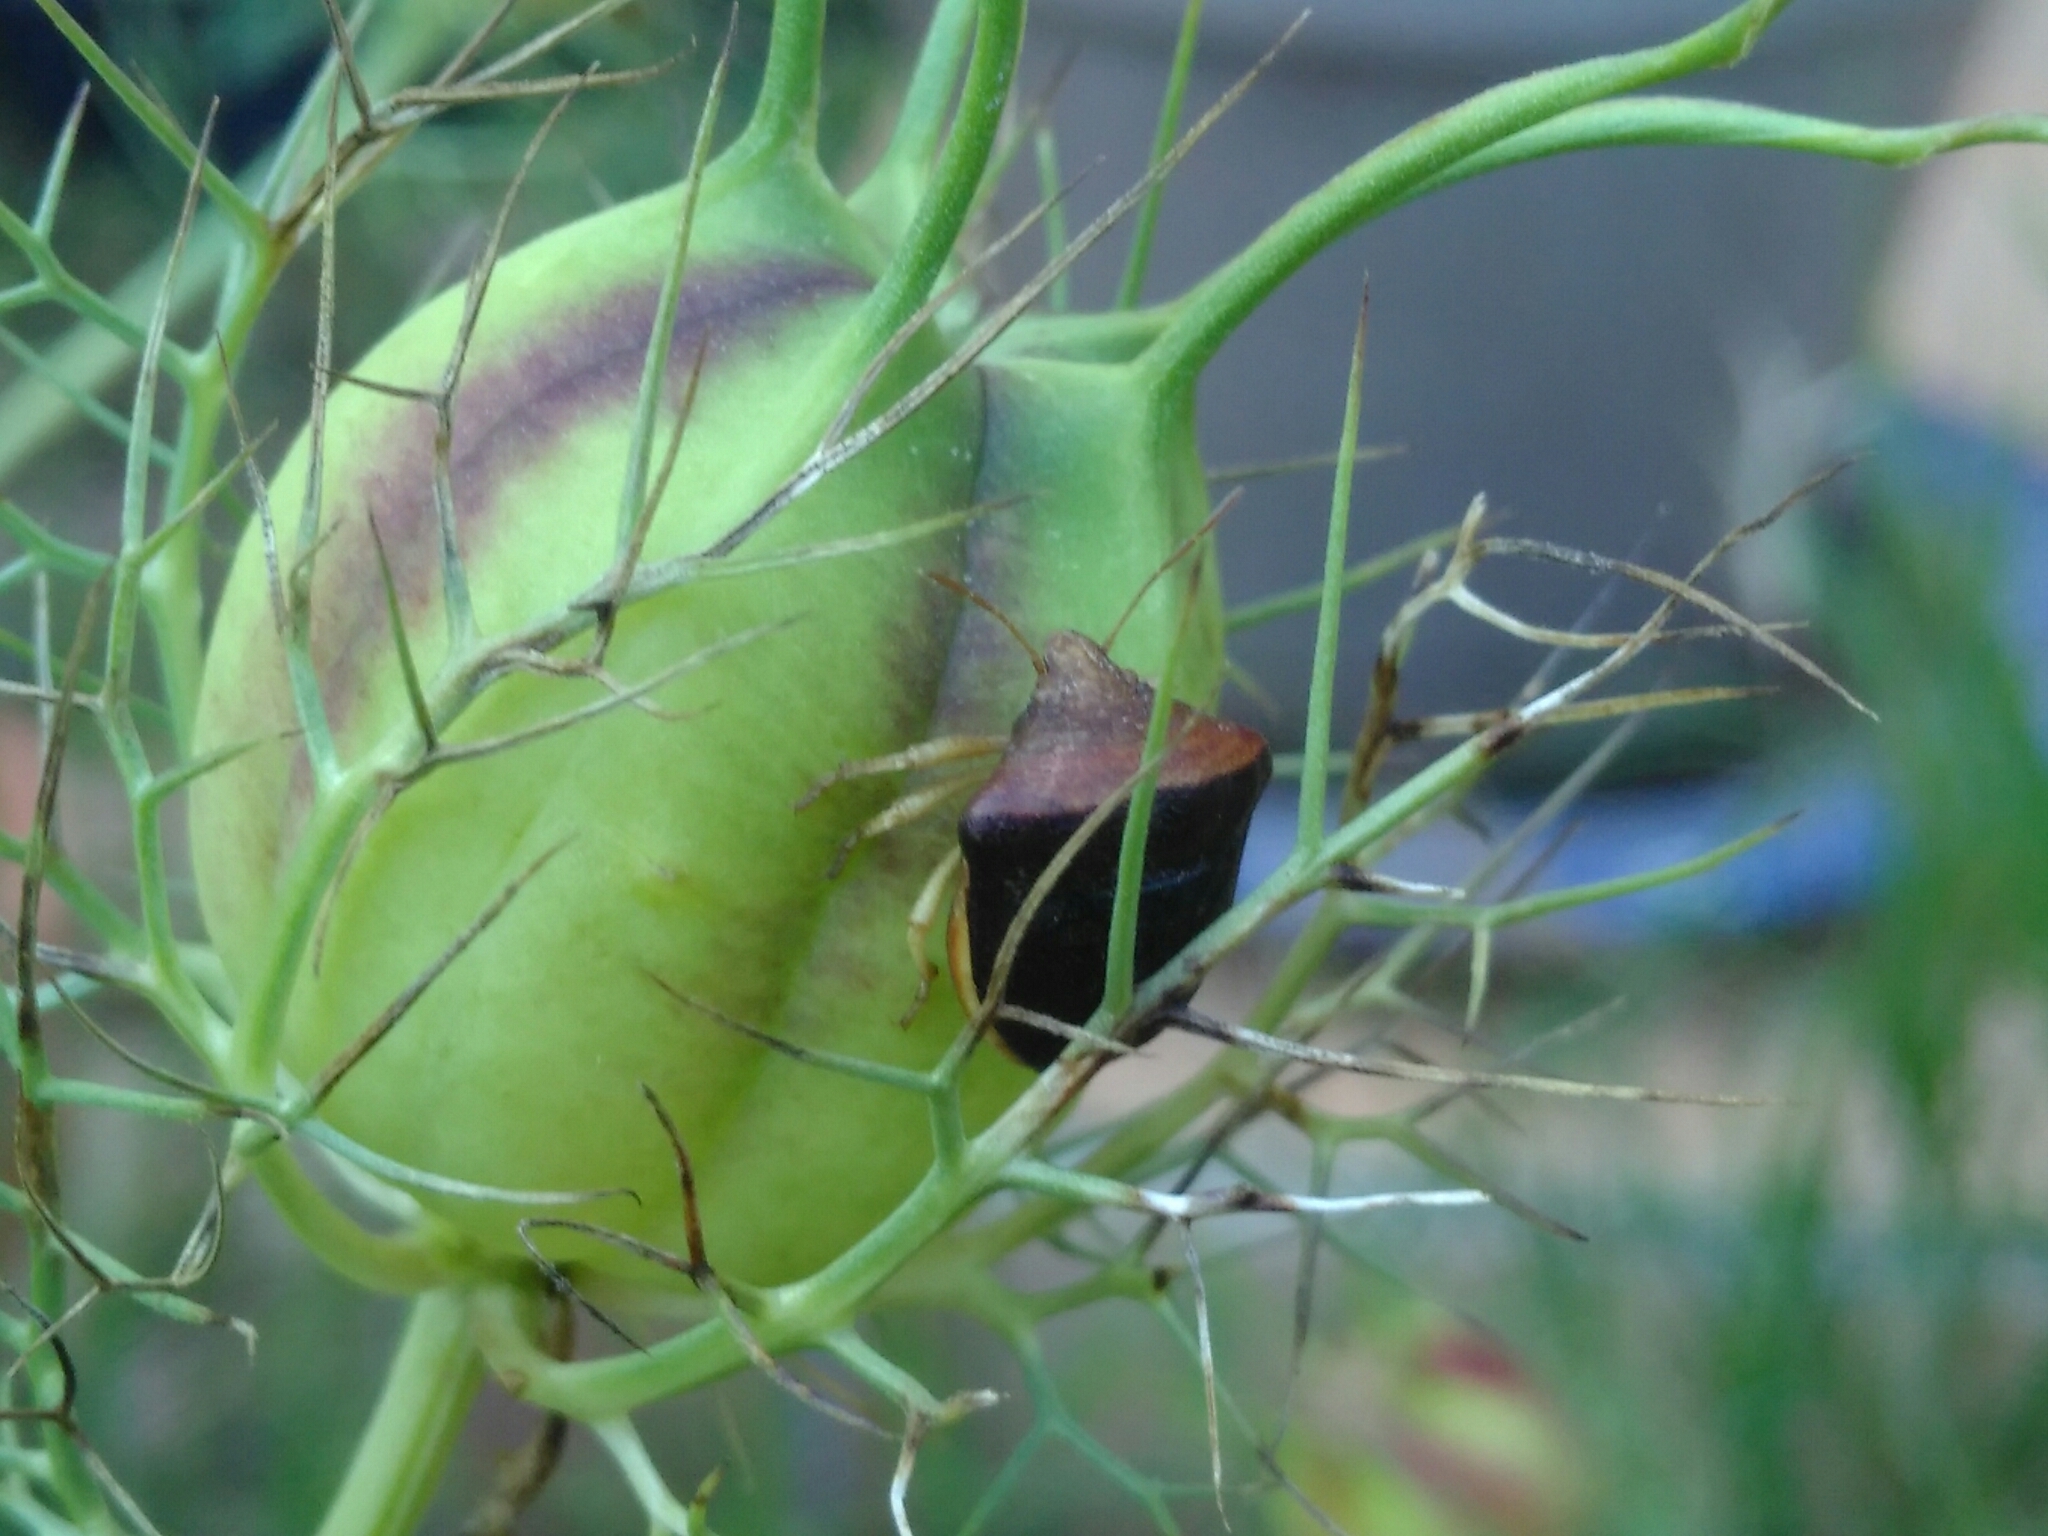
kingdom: Animalia
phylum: Arthropoda
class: Insecta
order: Hemiptera
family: Pentatomidae
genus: Ventocoris
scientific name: Ventocoris rusticus
